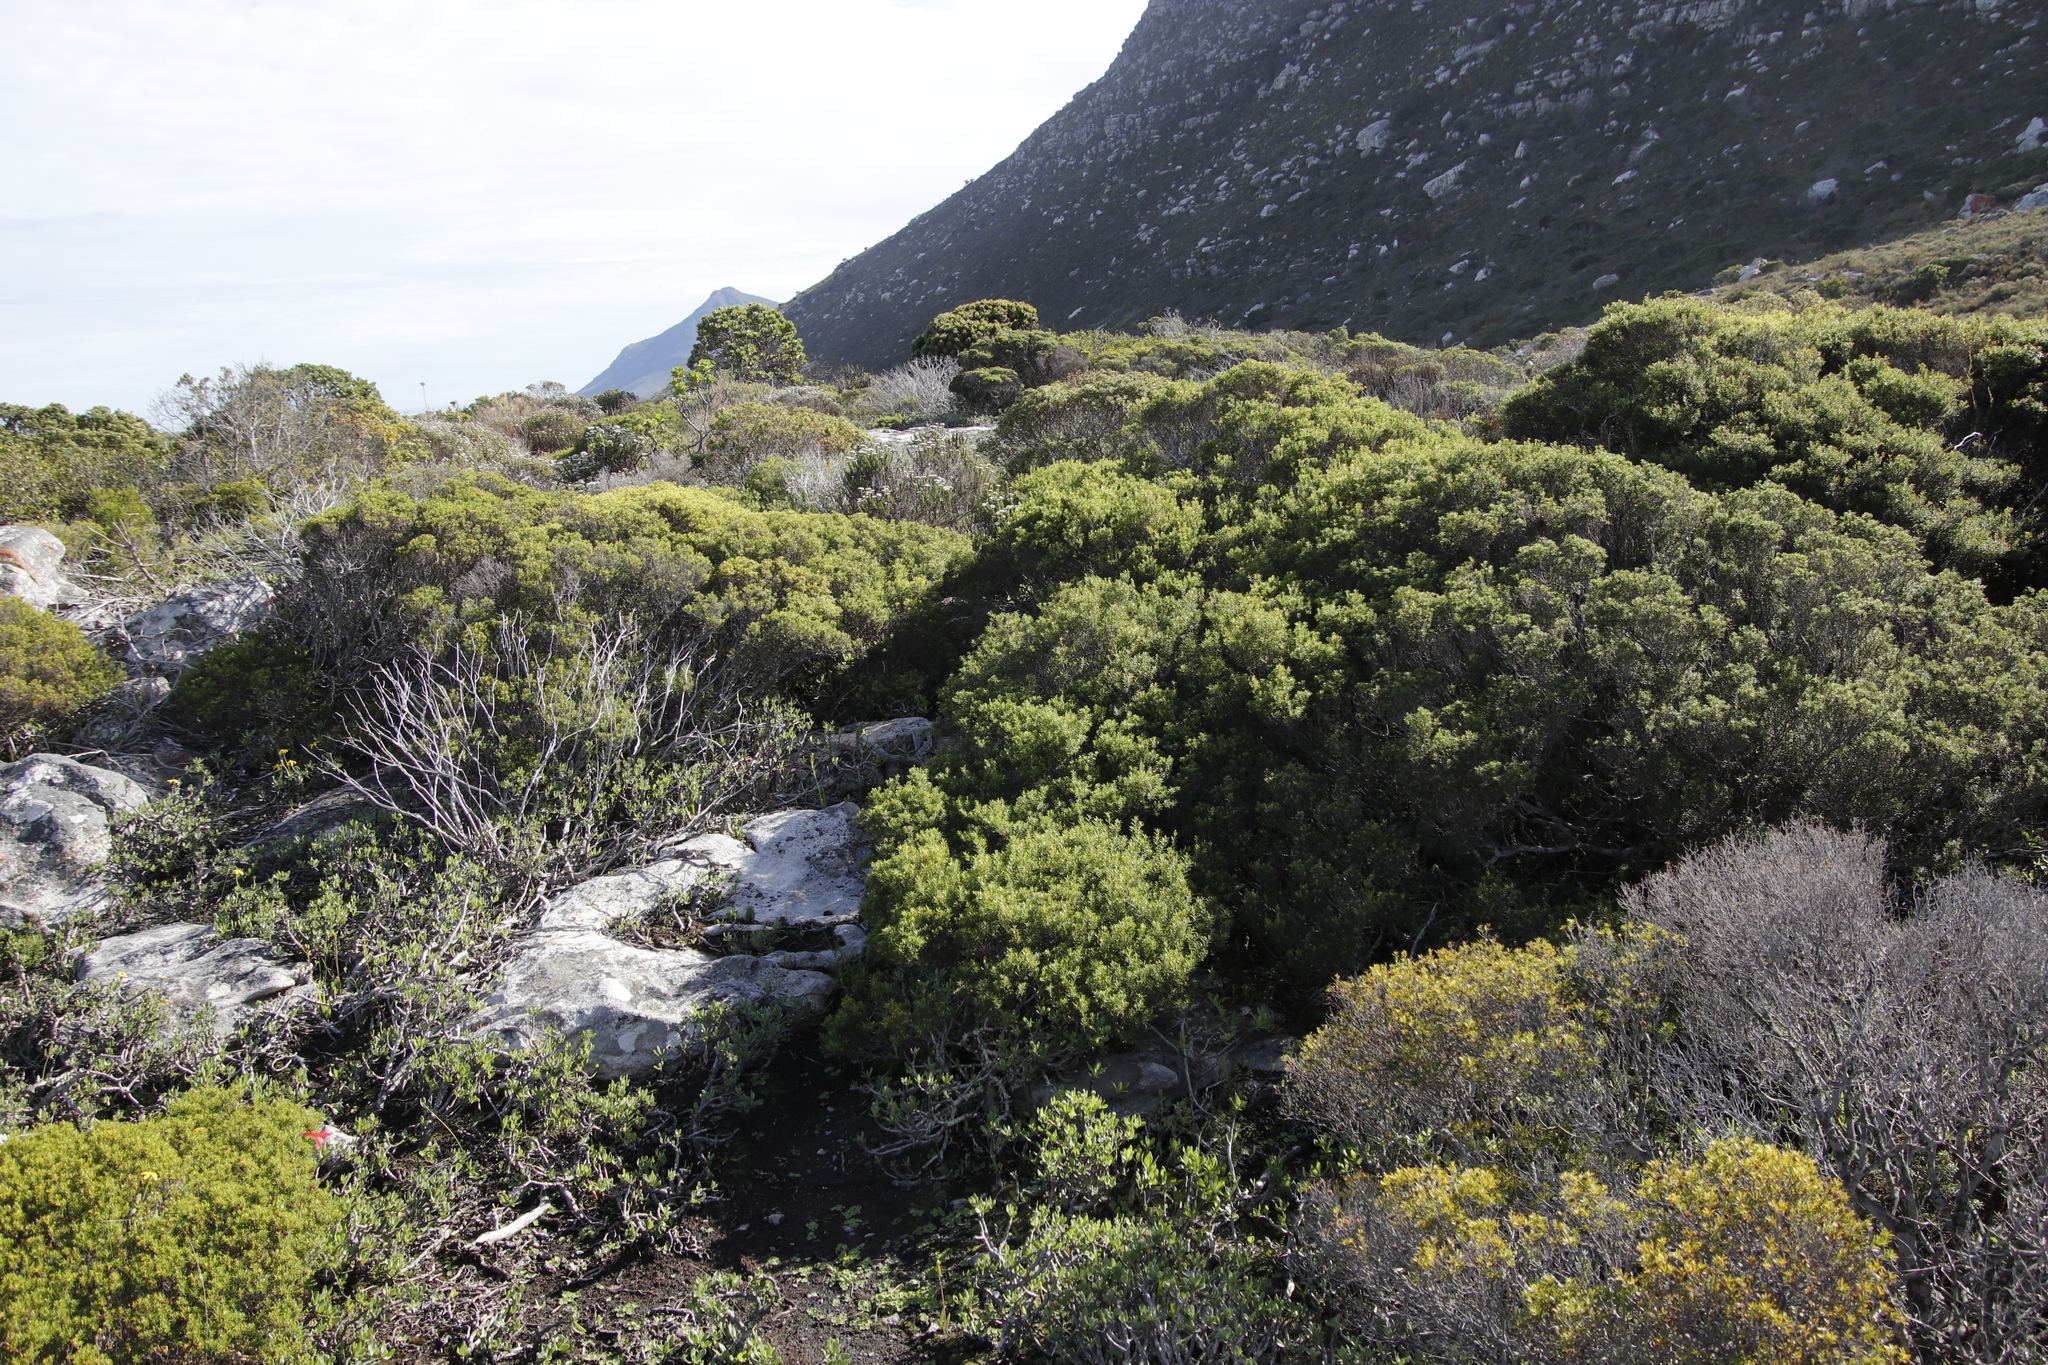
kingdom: Plantae
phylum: Tracheophyta
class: Magnoliopsida
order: Sapindales
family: Rutaceae
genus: Coleonema
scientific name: Coleonema album
